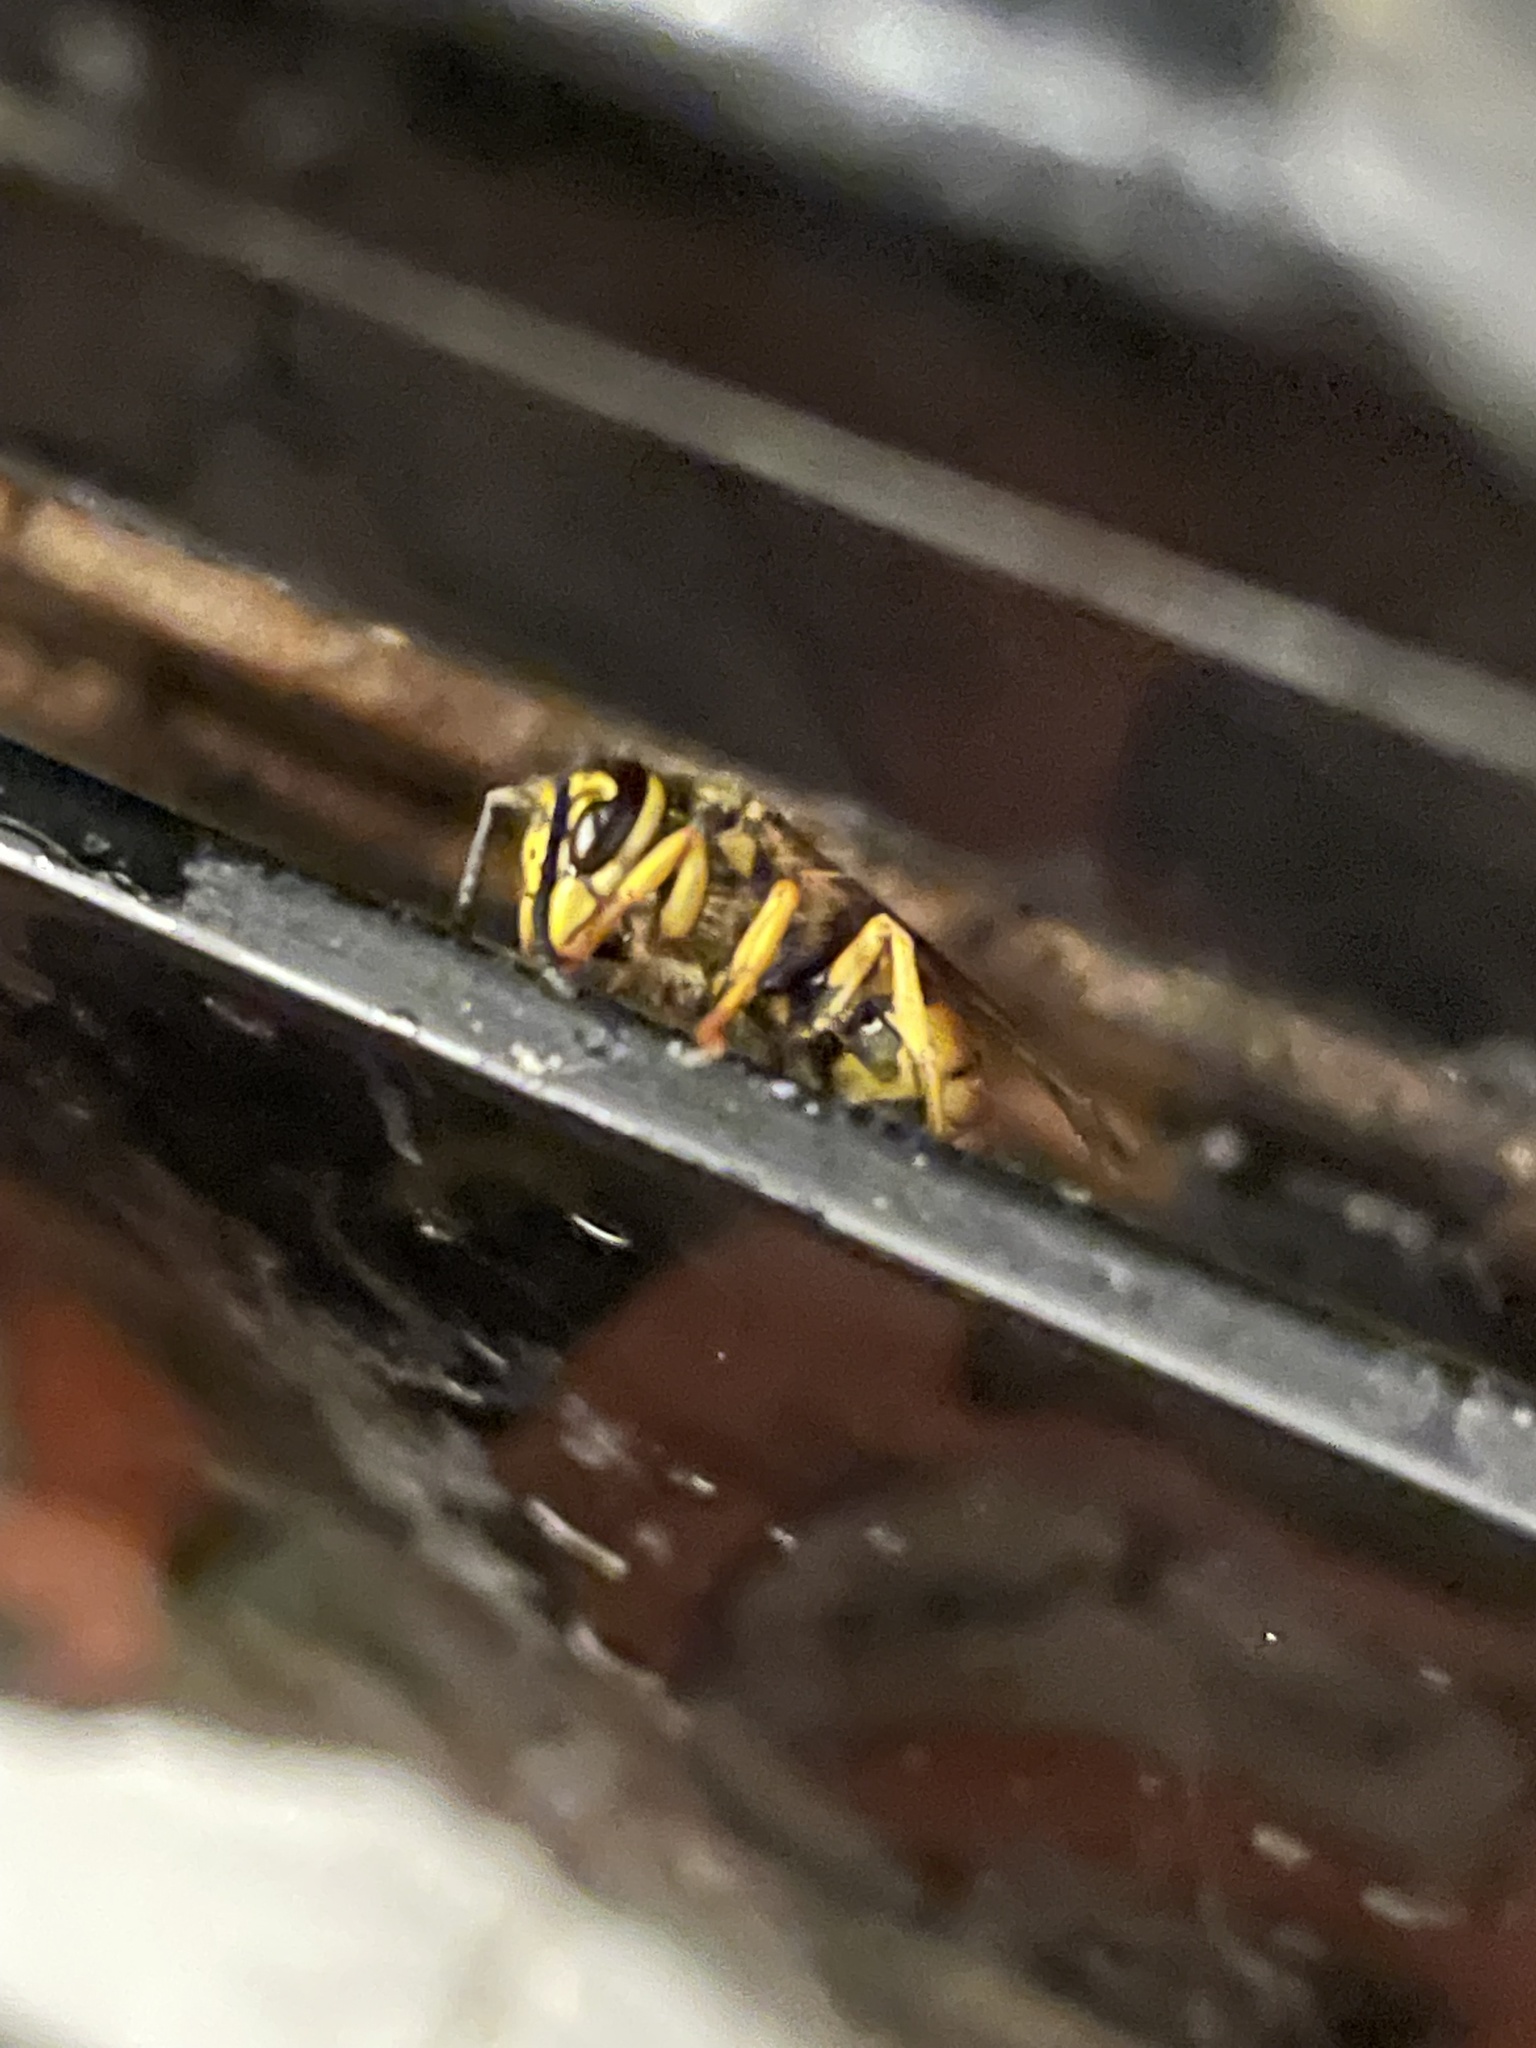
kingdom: Animalia
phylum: Arthropoda
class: Insecta
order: Hymenoptera
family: Vespidae
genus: Vespula
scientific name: Vespula
